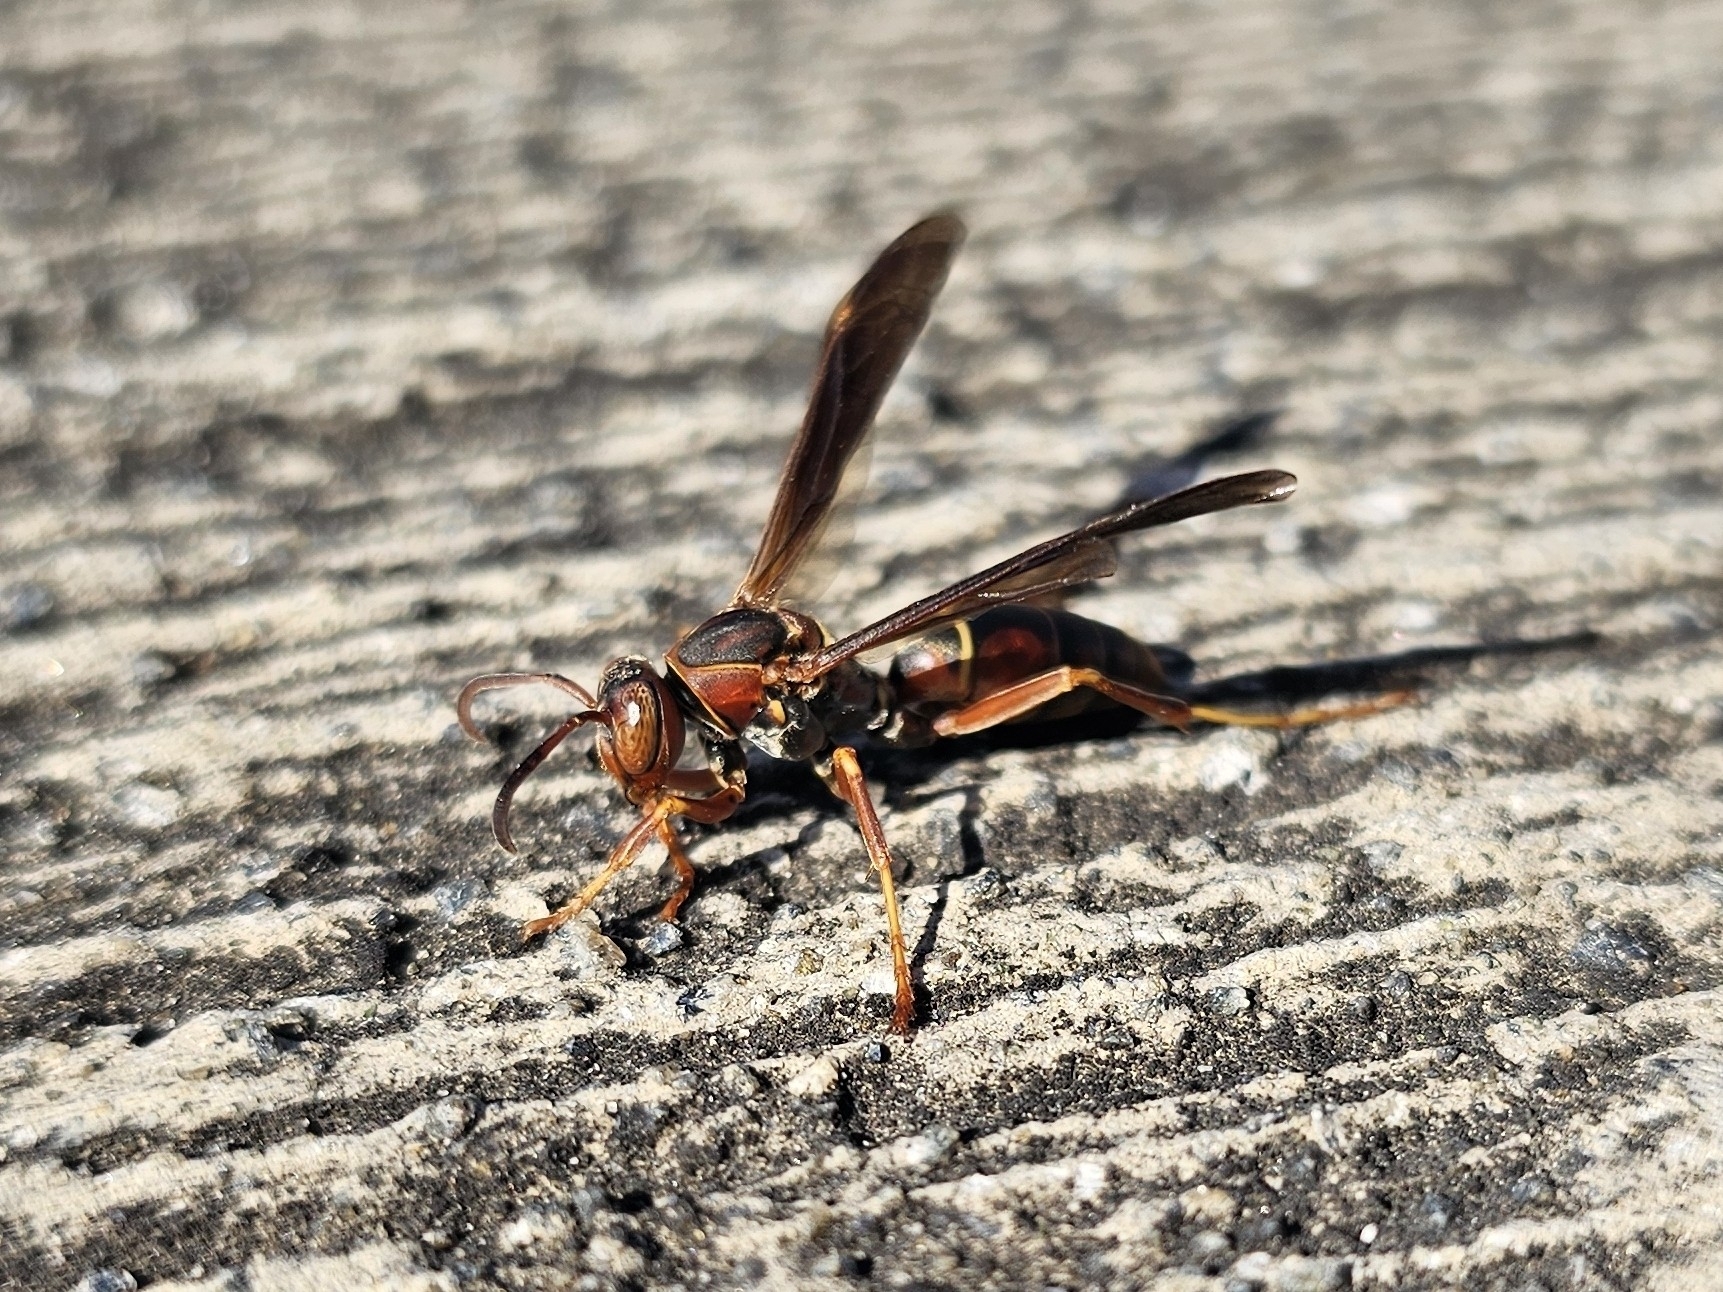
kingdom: Animalia
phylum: Arthropoda
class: Insecta
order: Hymenoptera
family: Eumenidae
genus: Polistes
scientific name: Polistes fuscatus
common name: Dark paper wasp
